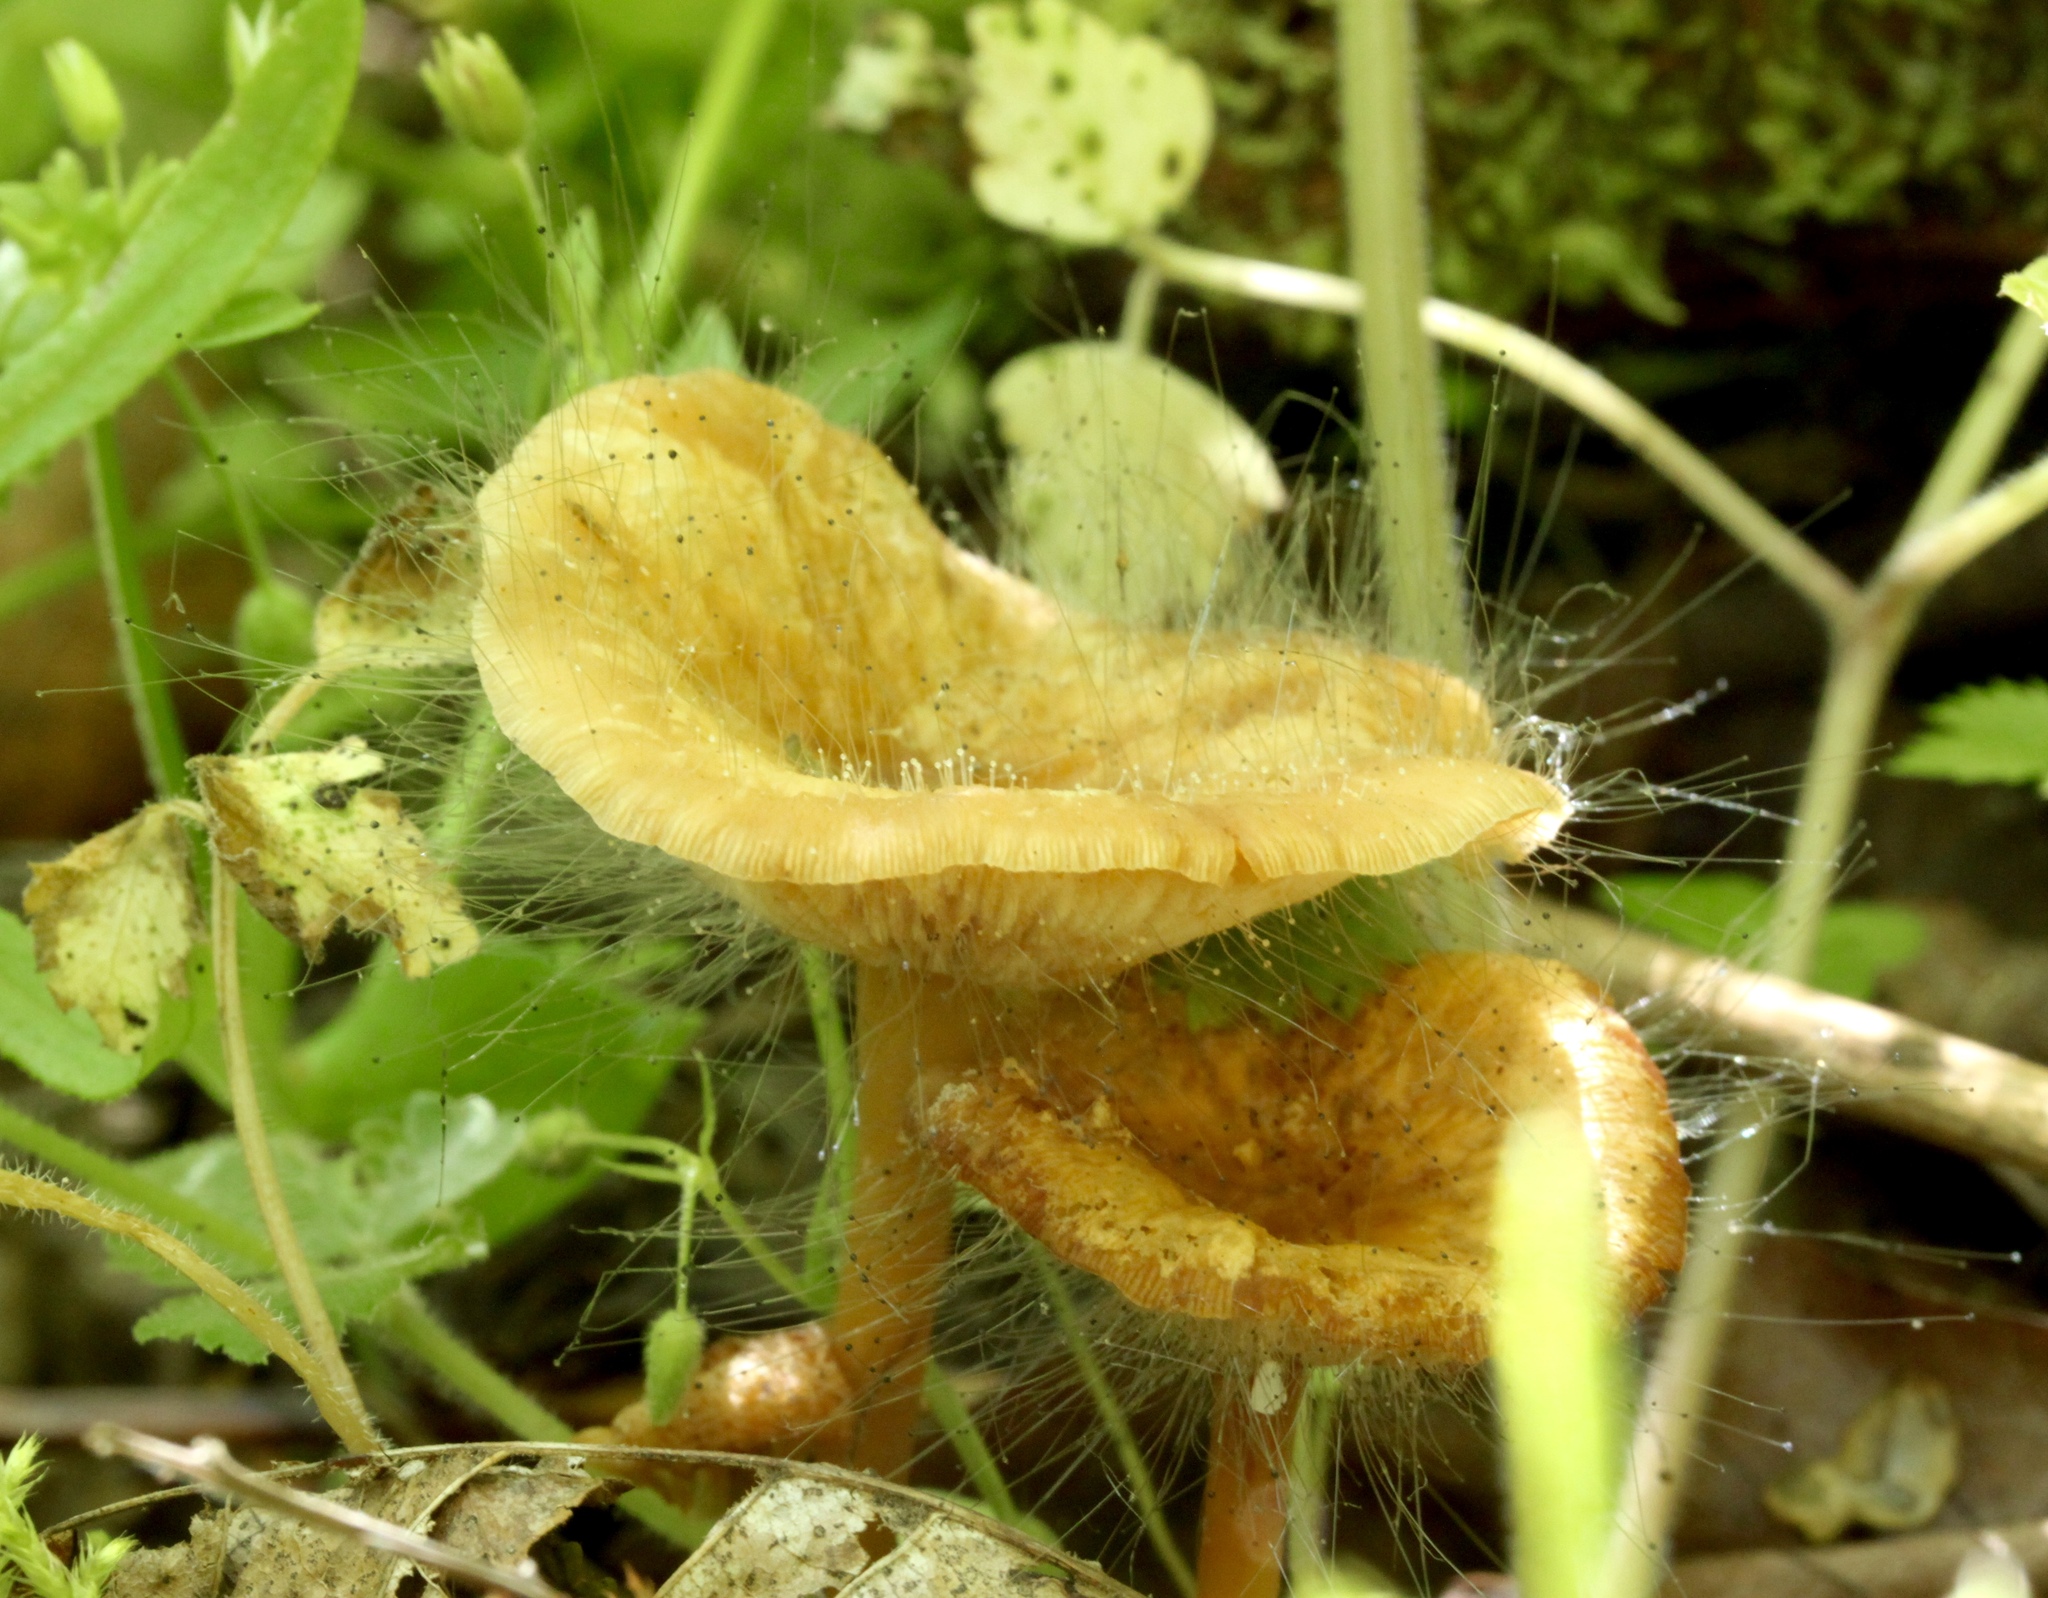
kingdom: Fungi
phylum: Mucoromycota
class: Mucoromycetes
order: Mucorales
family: Phycomycetaceae
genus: Spinellus
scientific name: Spinellus fusiger
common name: Bonnet mould
